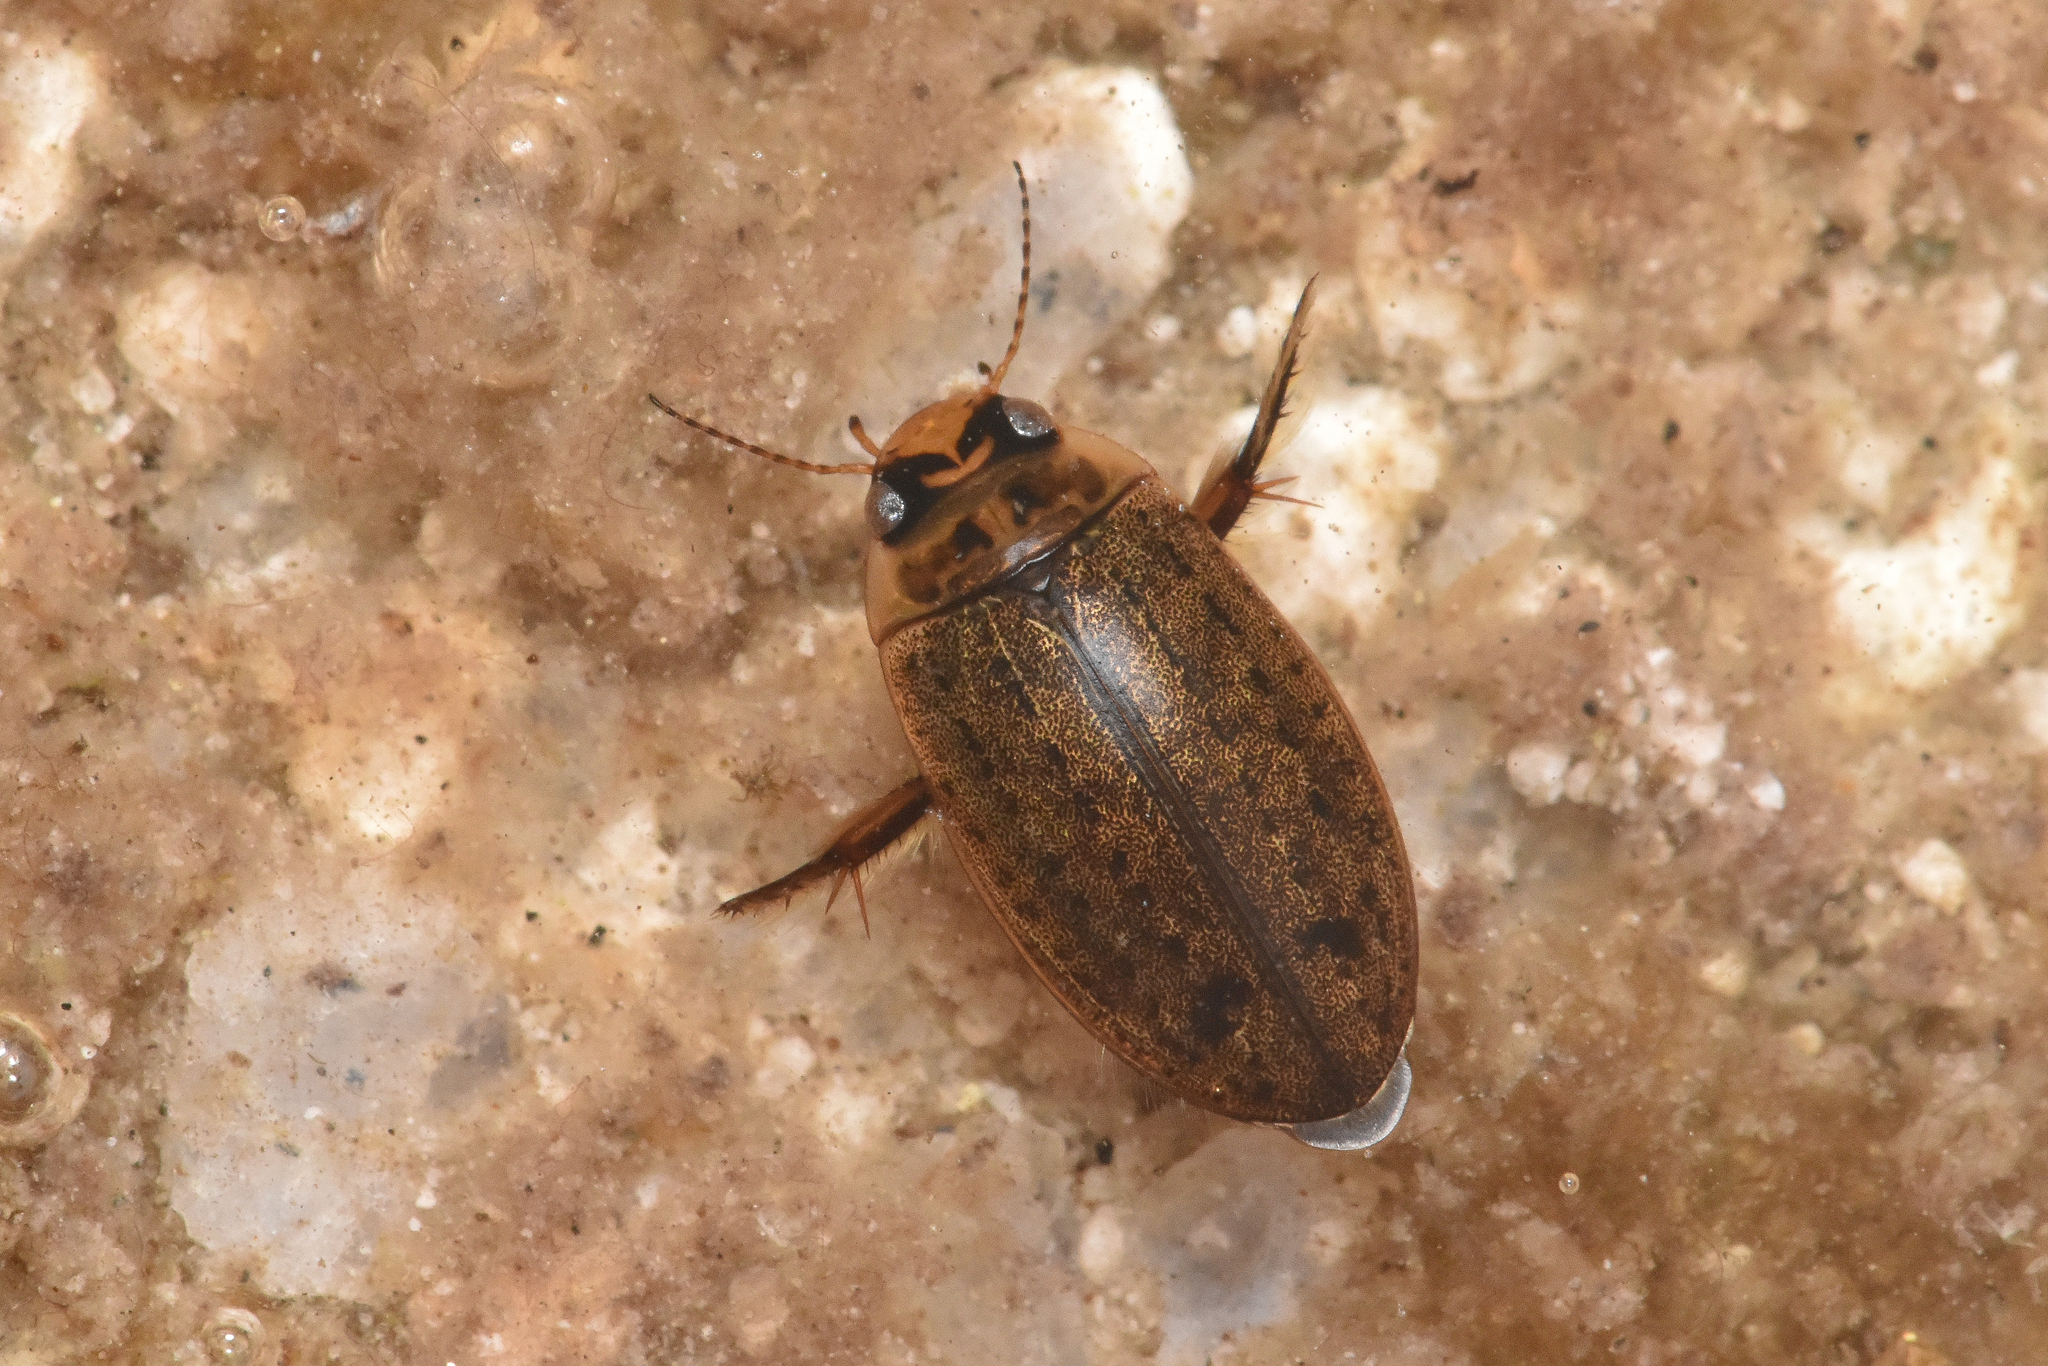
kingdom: Animalia
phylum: Arthropoda
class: Insecta
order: Coleoptera
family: Dytiscidae
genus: Rhantus
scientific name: Rhantus binotatus
